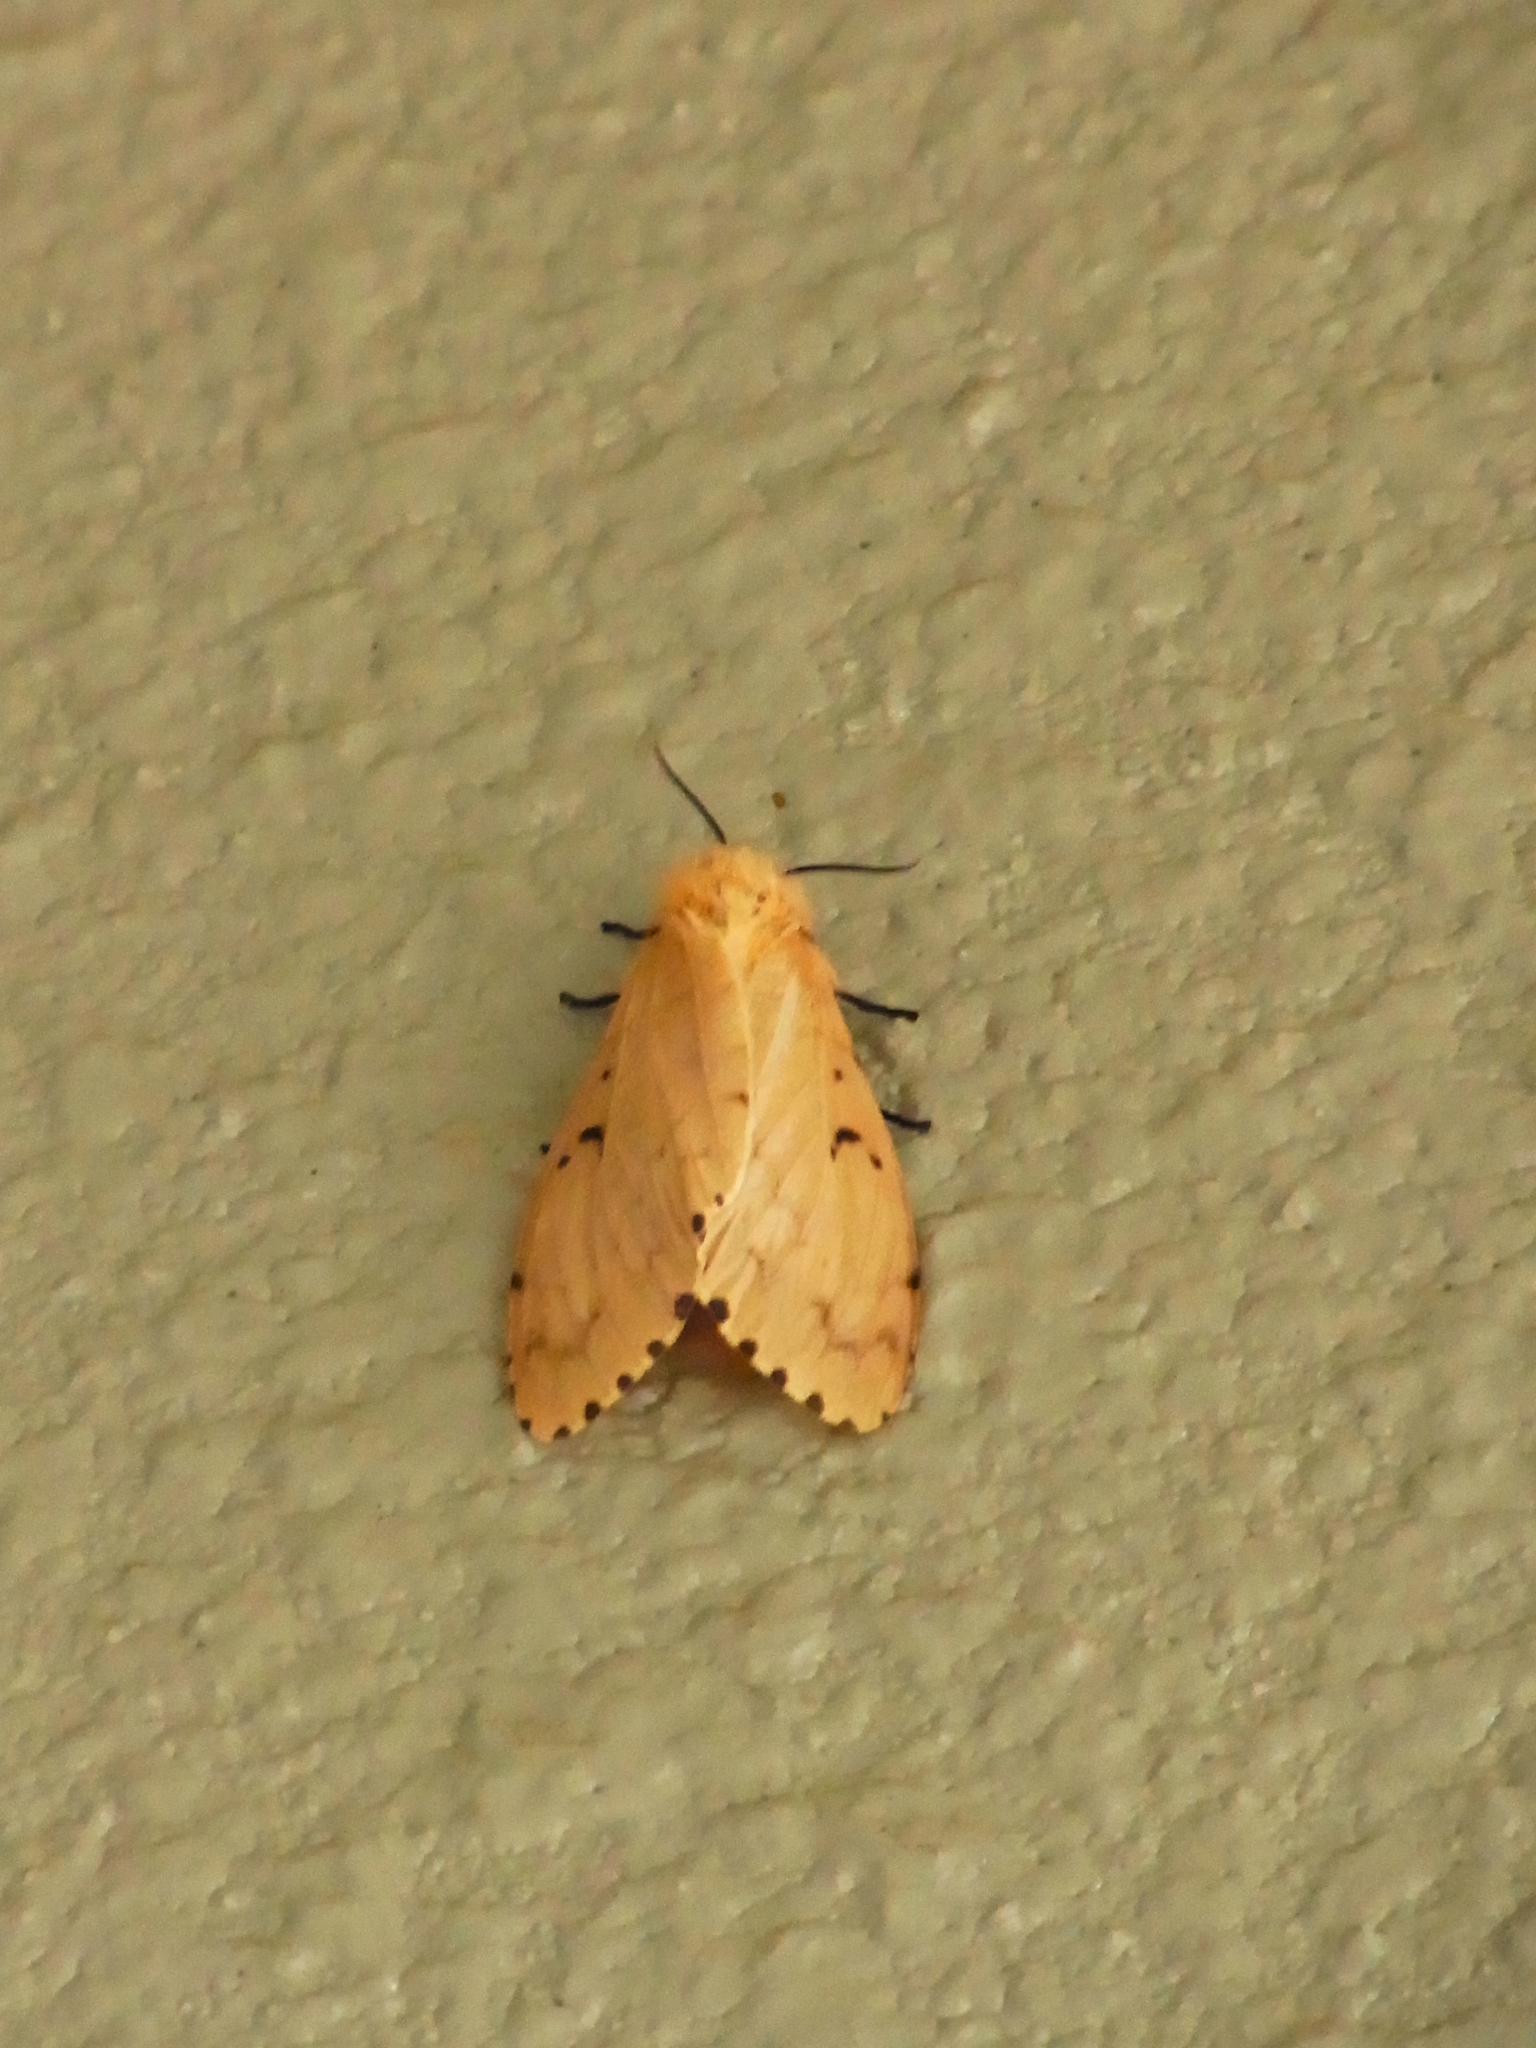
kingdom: Animalia
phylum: Arthropoda
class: Insecta
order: Lepidoptera
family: Erebidae
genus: Lymantria
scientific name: Lymantria dispar
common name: Gypsy moth
